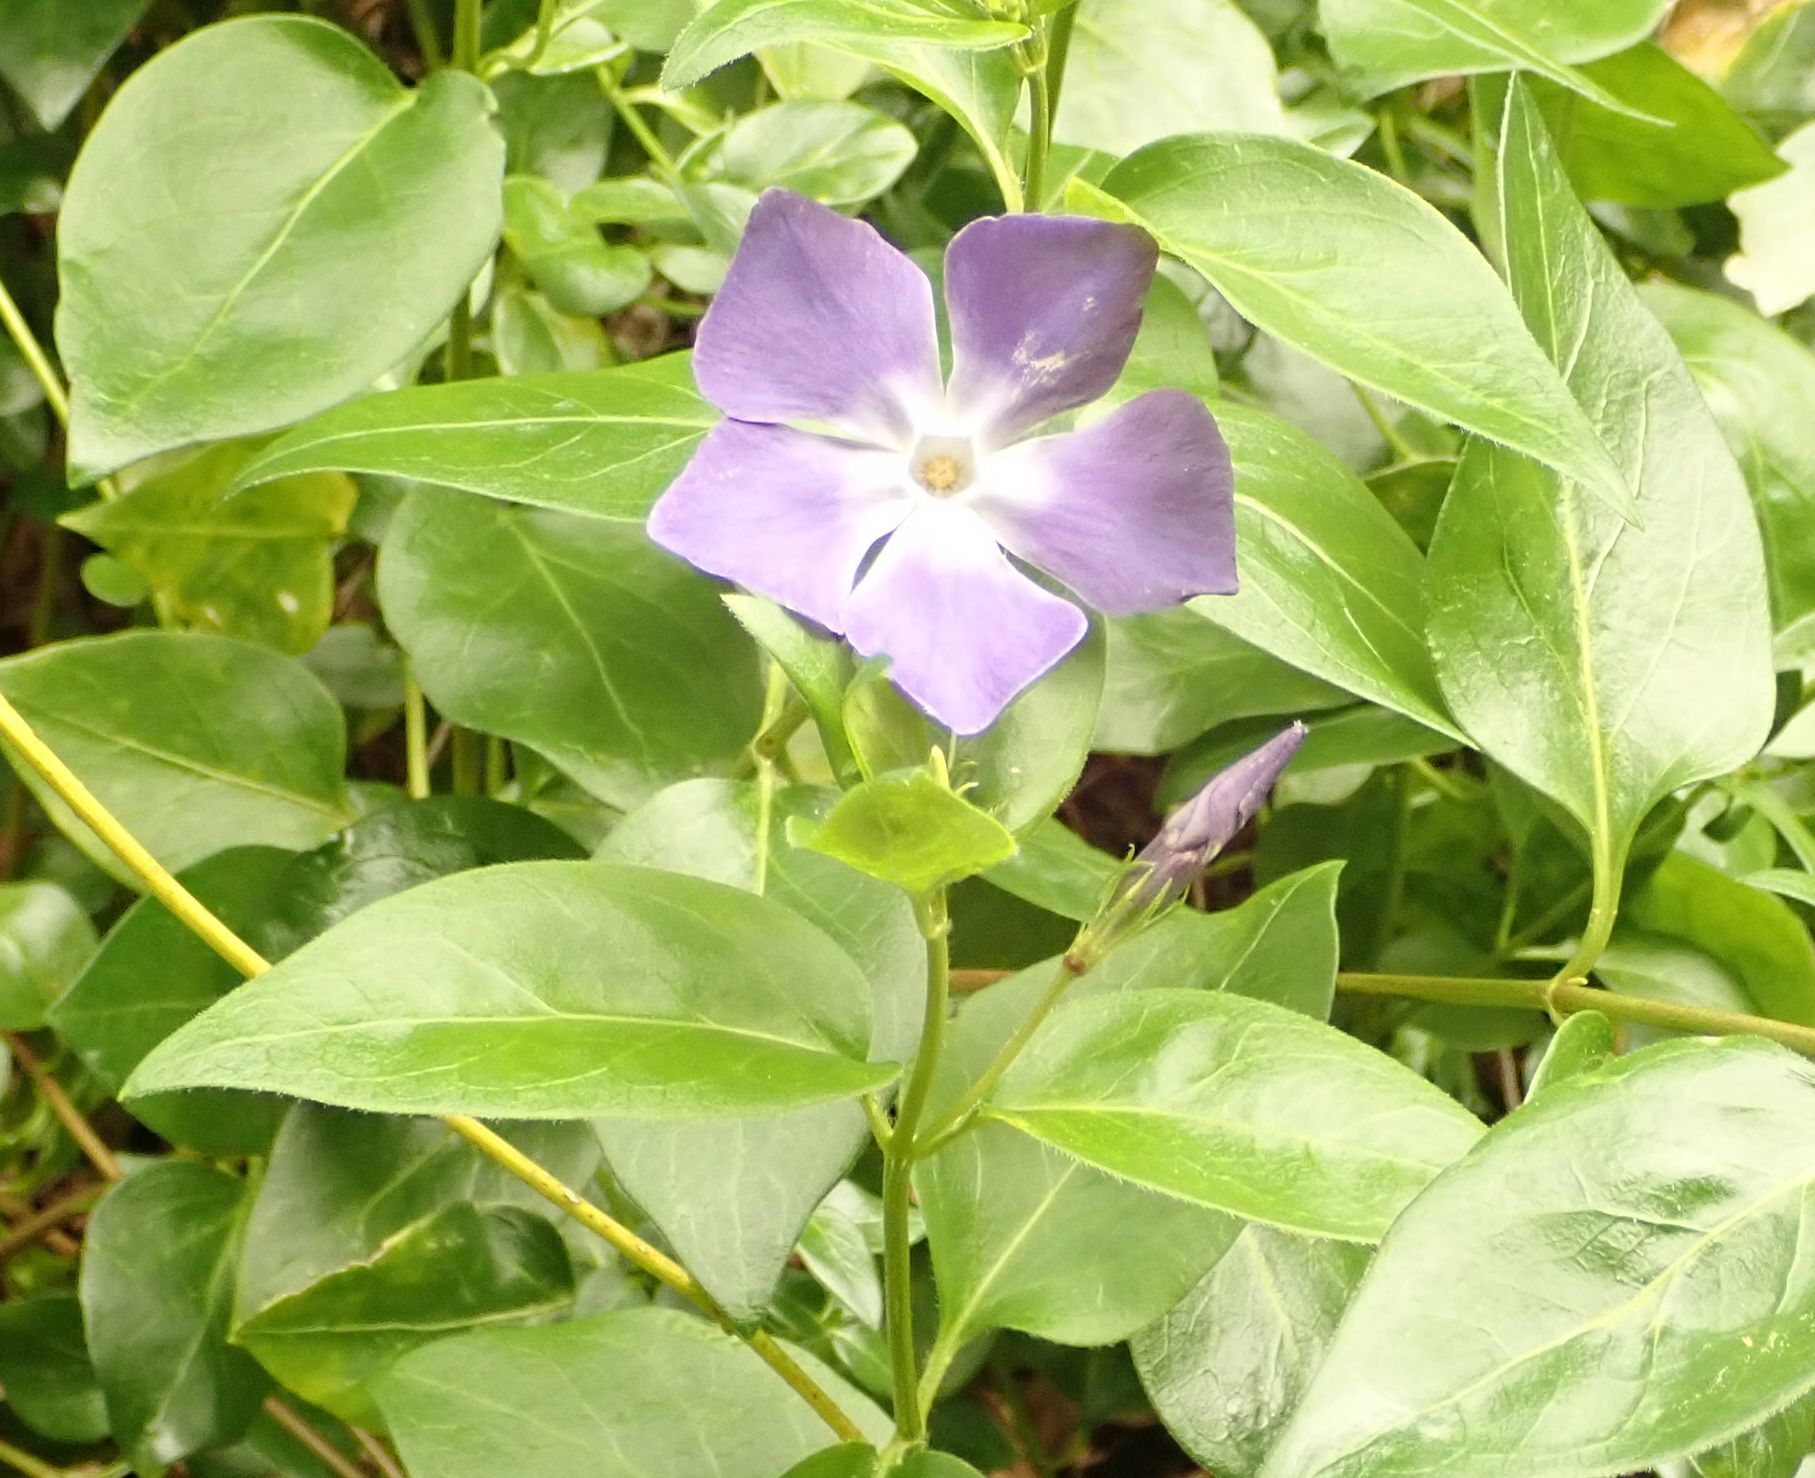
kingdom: Plantae
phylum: Tracheophyta
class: Magnoliopsida
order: Gentianales
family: Apocynaceae
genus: Vinca
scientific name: Vinca major
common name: Greater periwinkle
